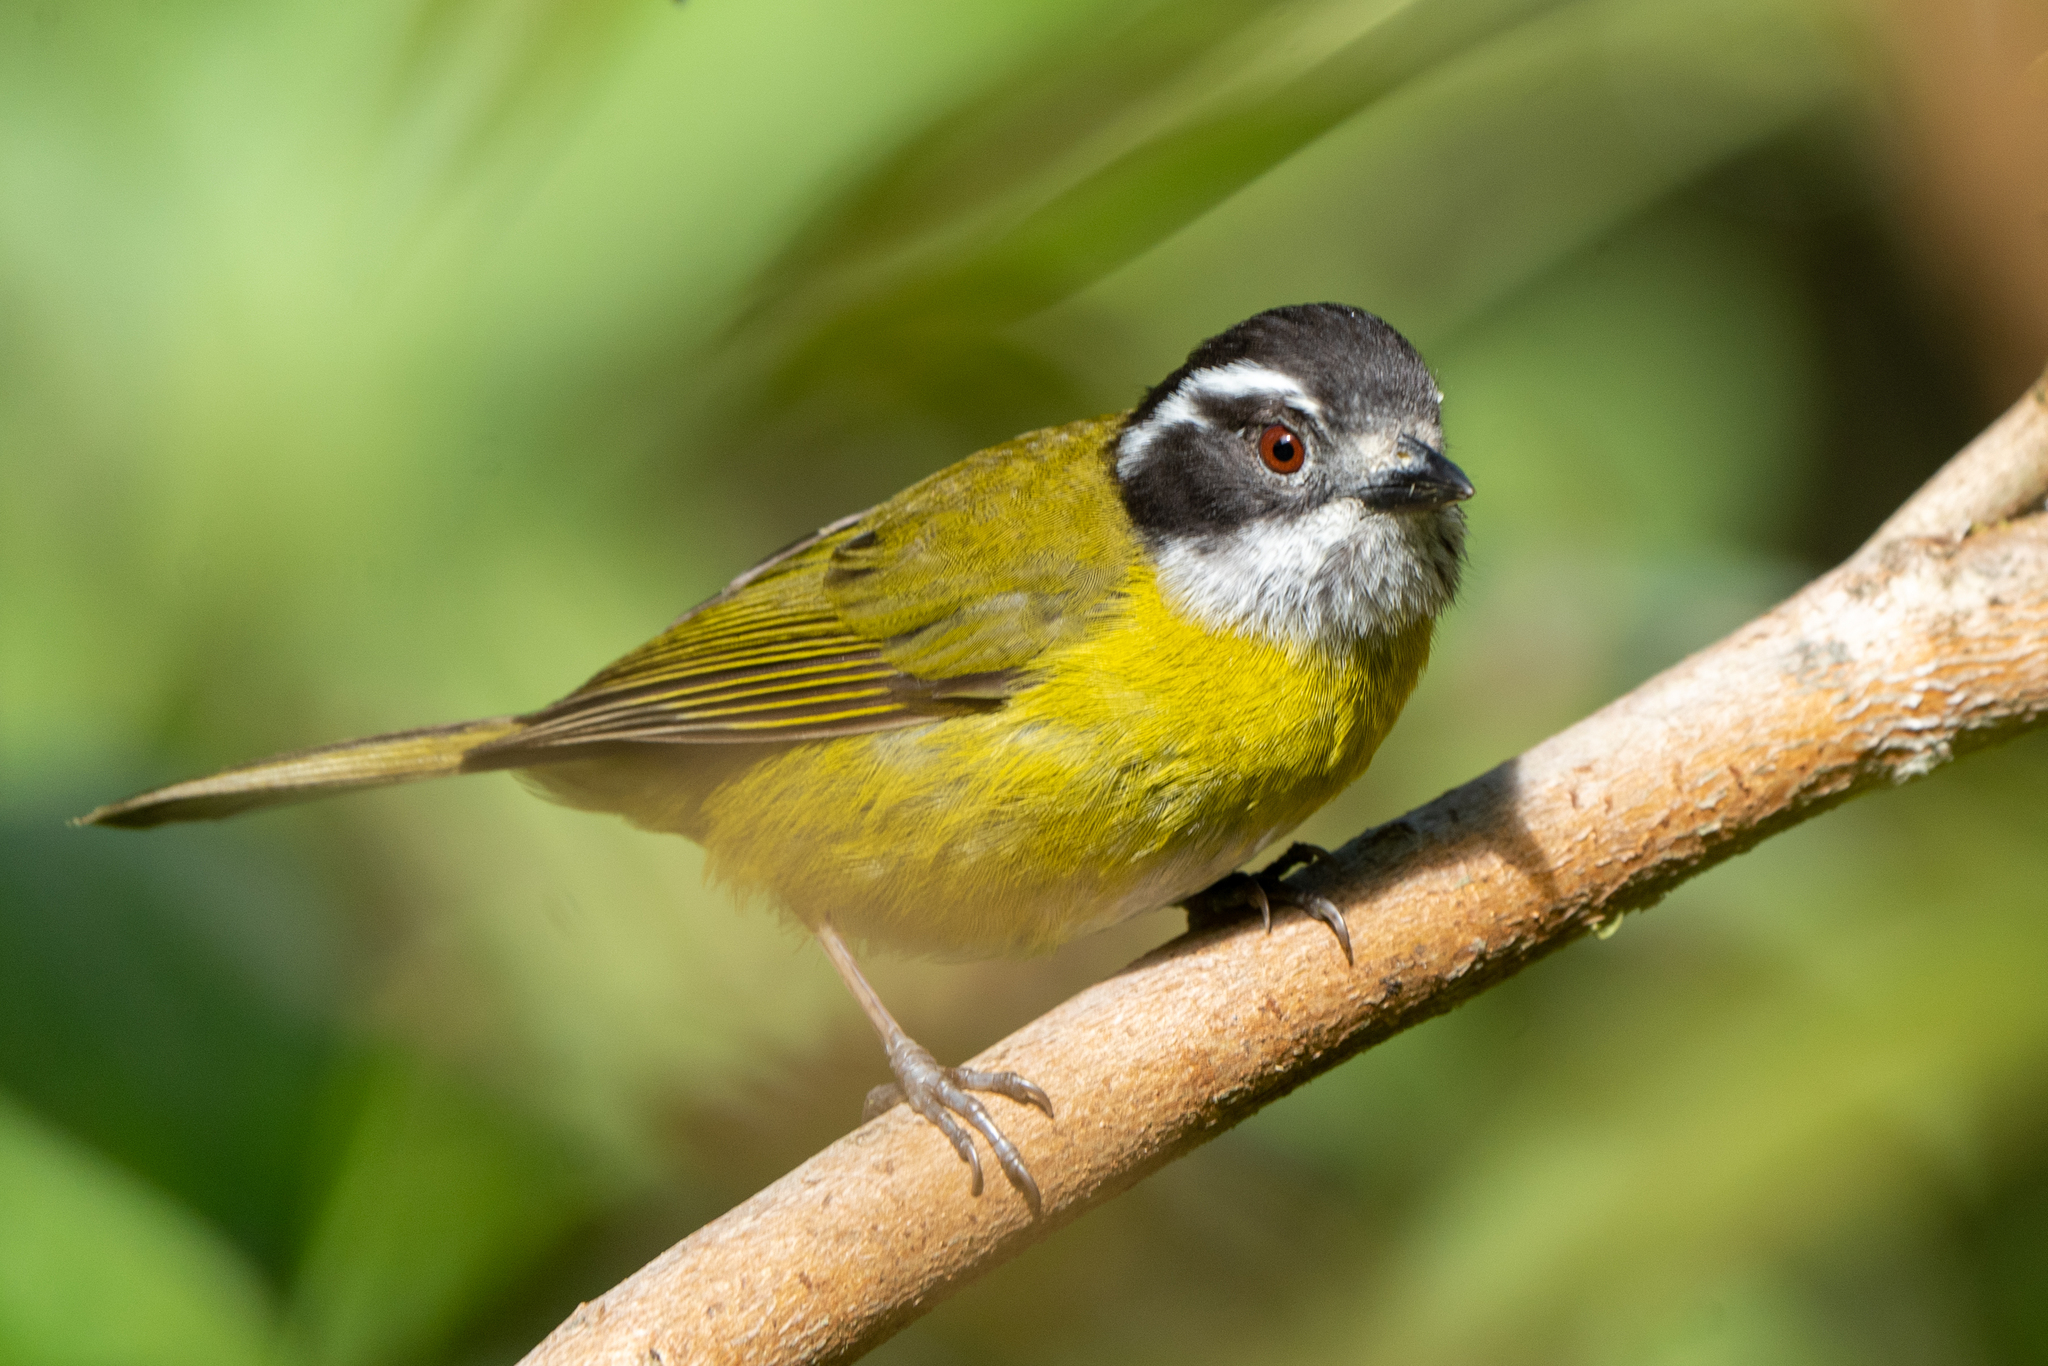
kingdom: Animalia
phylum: Chordata
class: Aves
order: Passeriformes
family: Passerellidae
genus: Chlorospingus
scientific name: Chlorospingus pileatus
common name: Sooty-capped bush-tanager
